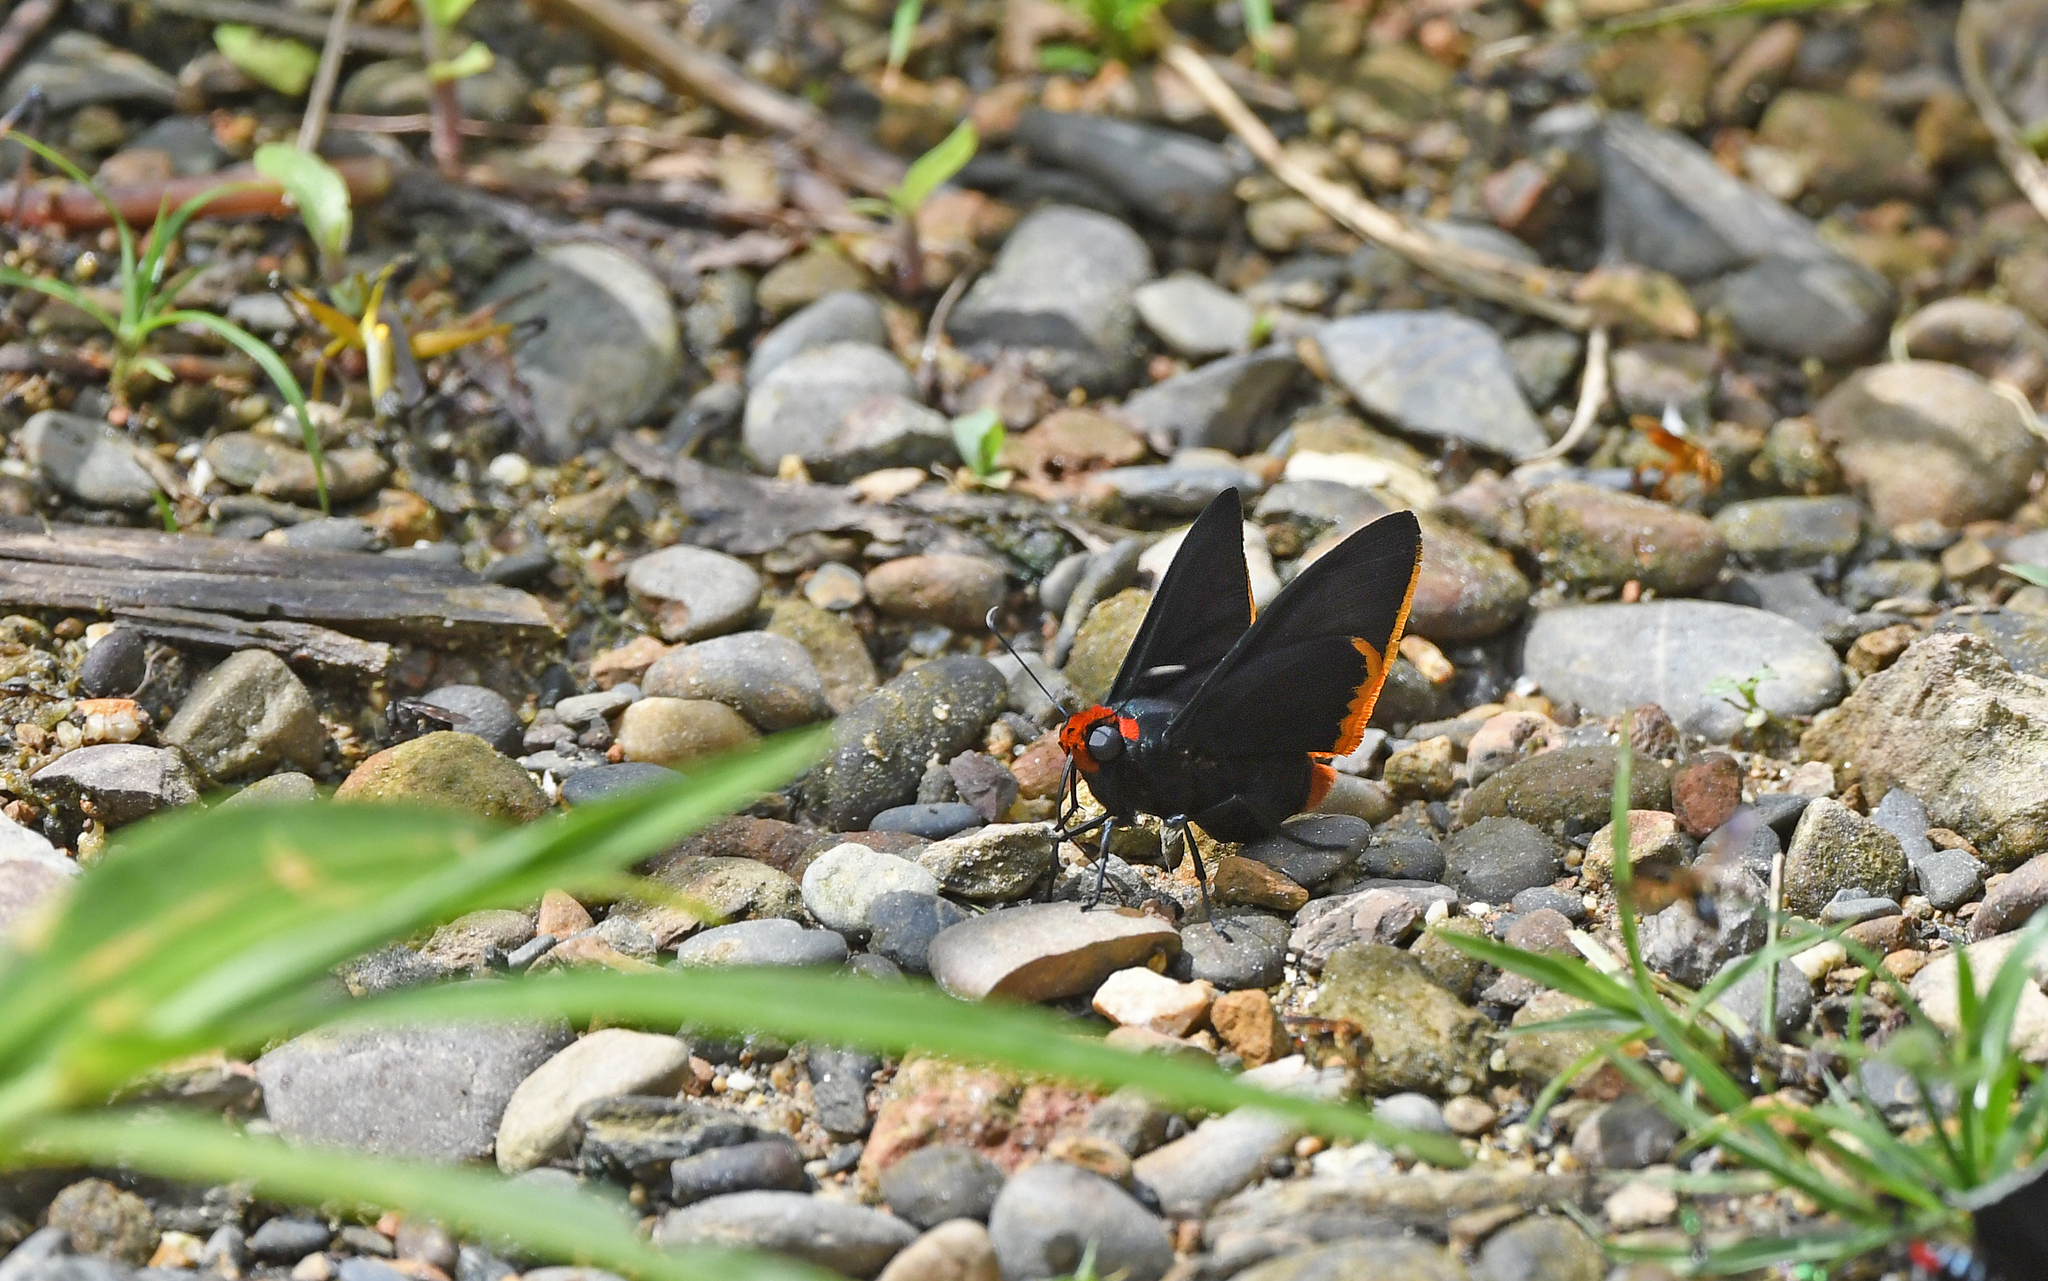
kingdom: Animalia
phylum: Arthropoda
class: Insecta
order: Lepidoptera
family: Hesperiidae
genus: Pyrrhopyge
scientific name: Pyrrhopyge arax
